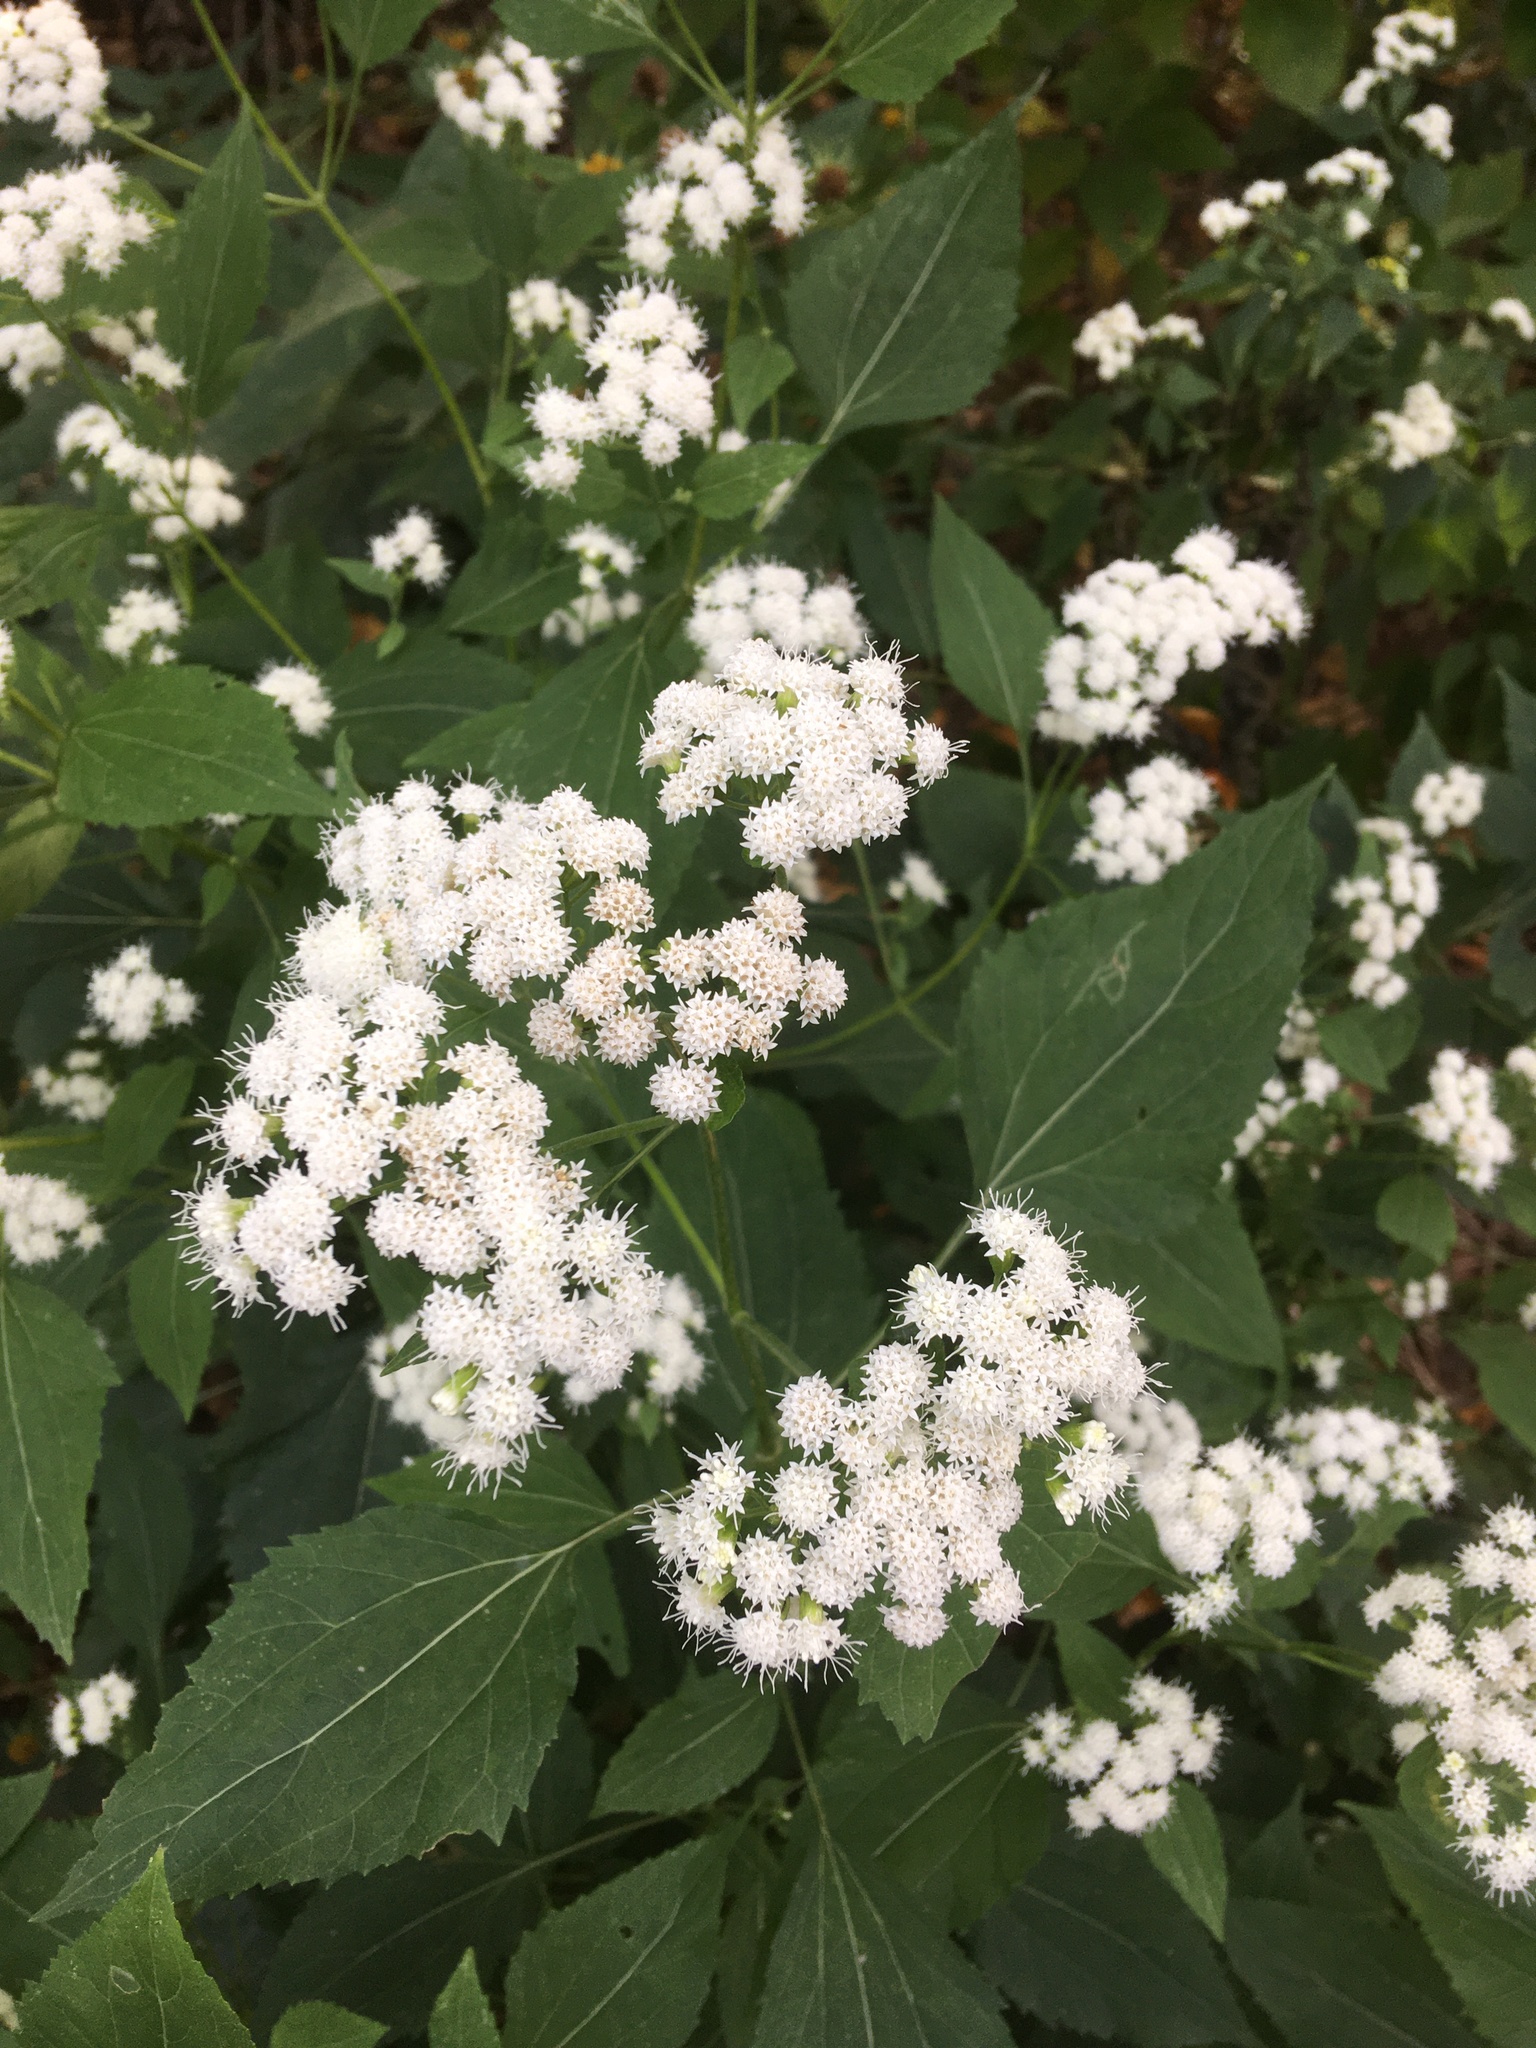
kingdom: Plantae
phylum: Tracheophyta
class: Magnoliopsida
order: Asterales
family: Asteraceae
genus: Ageratina
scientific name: Ageratina altissima
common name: White snakeroot
